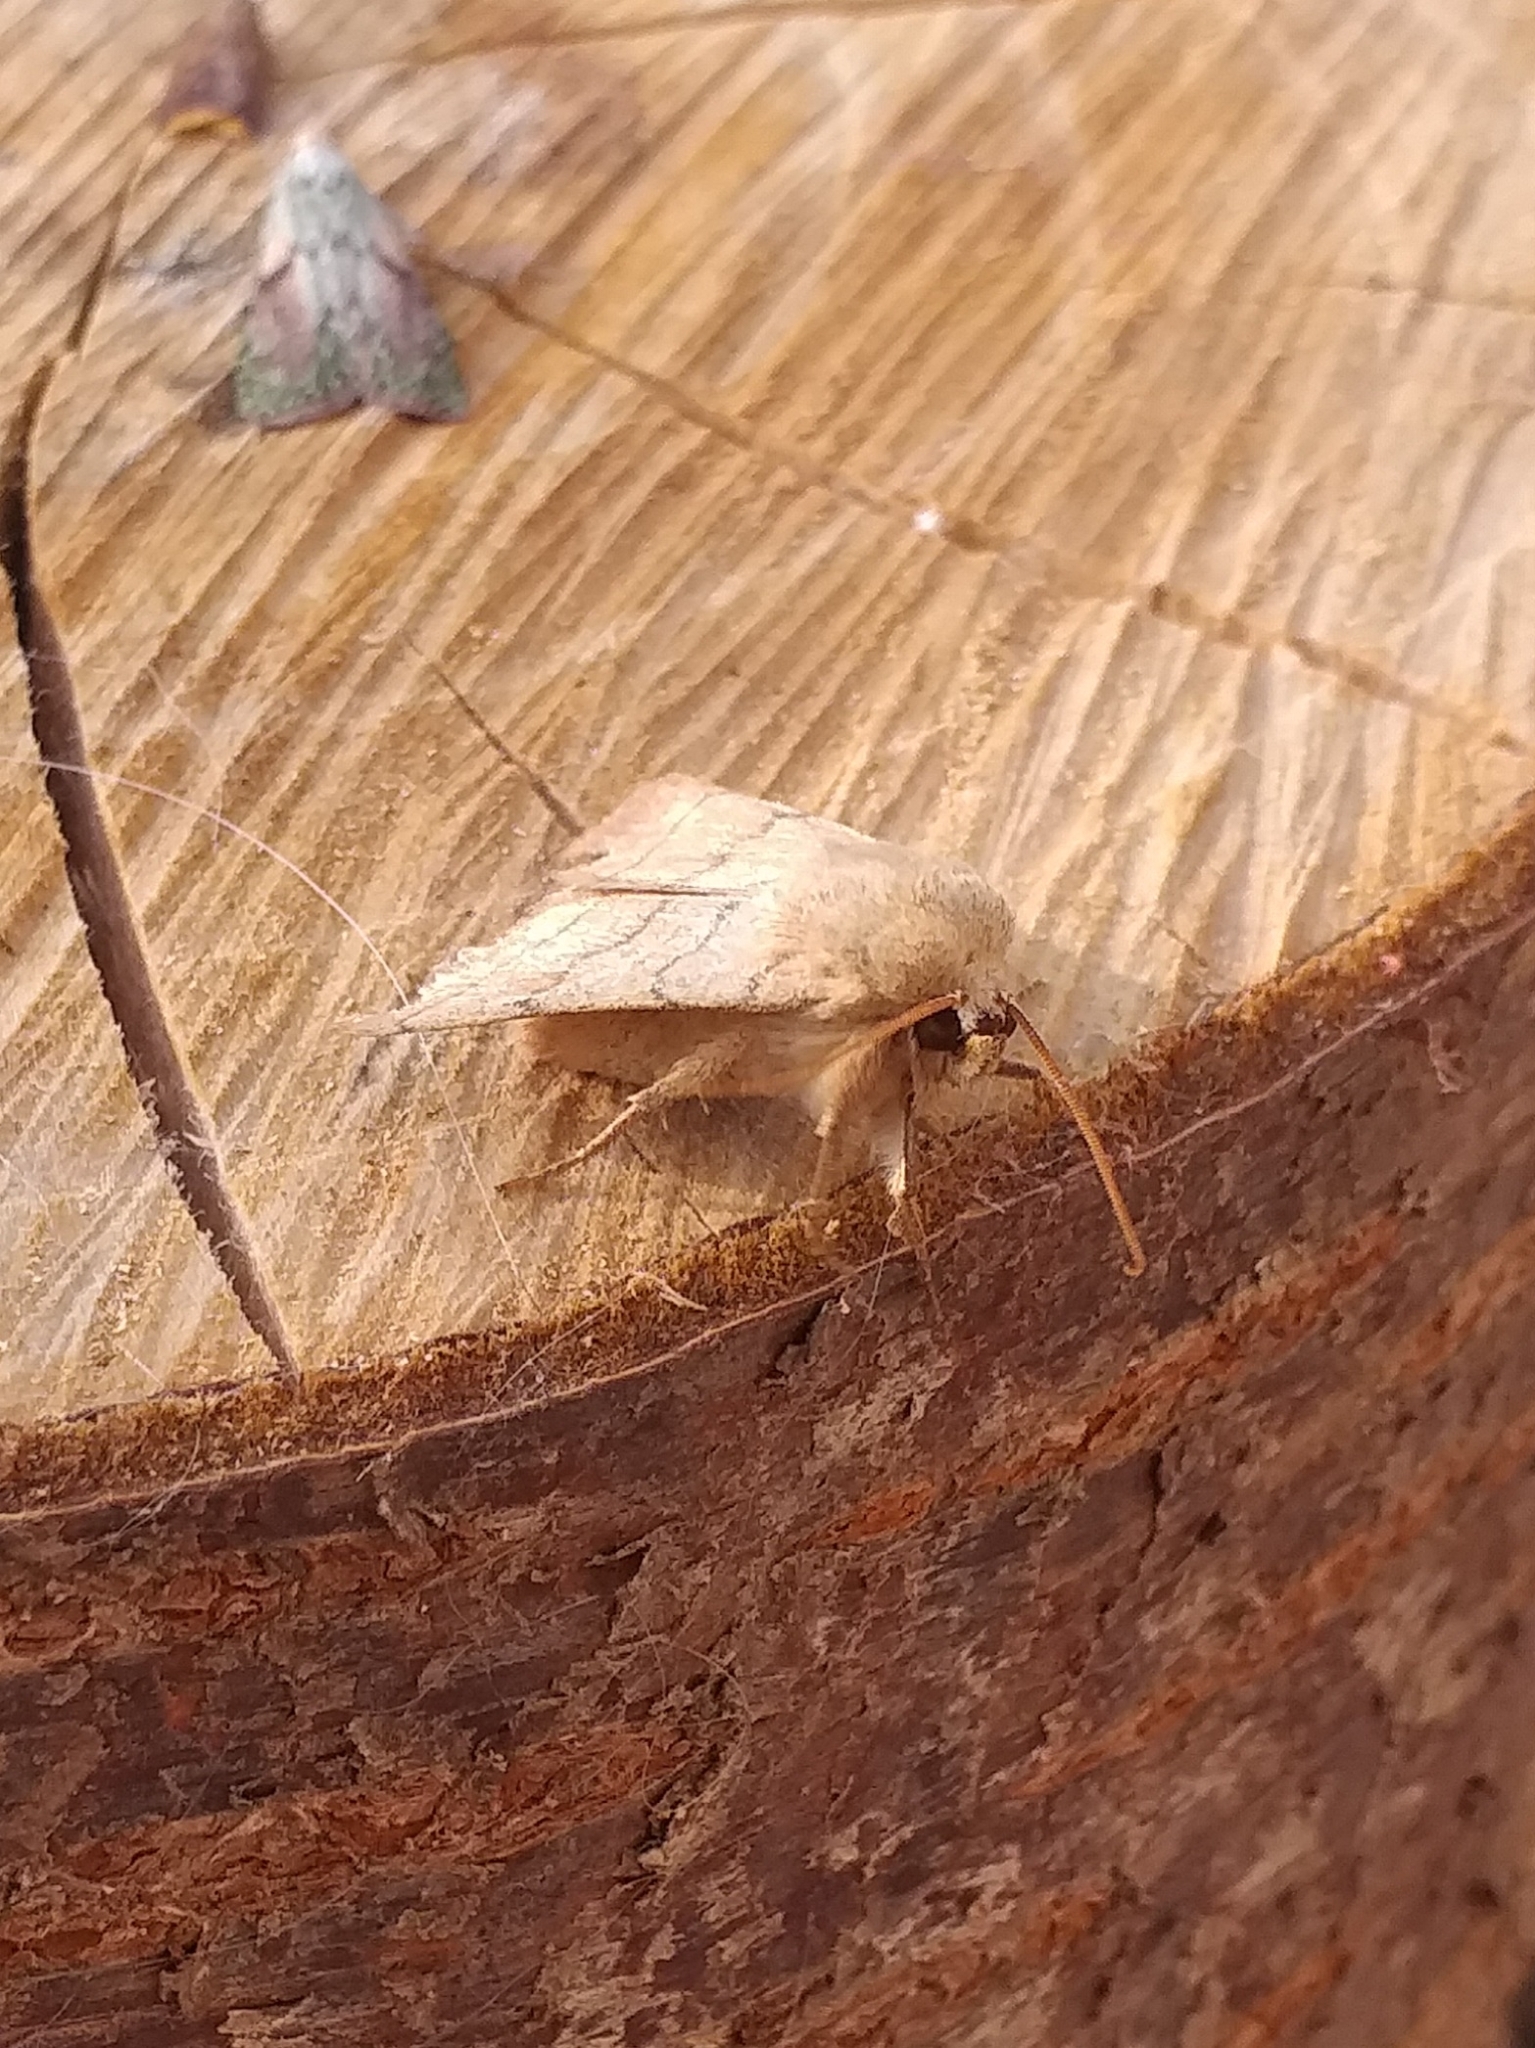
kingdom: Animalia
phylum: Arthropoda
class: Insecta
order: Lepidoptera
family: Noctuidae
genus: Charanyca
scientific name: Charanyca trigrammica
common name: Treble lines
